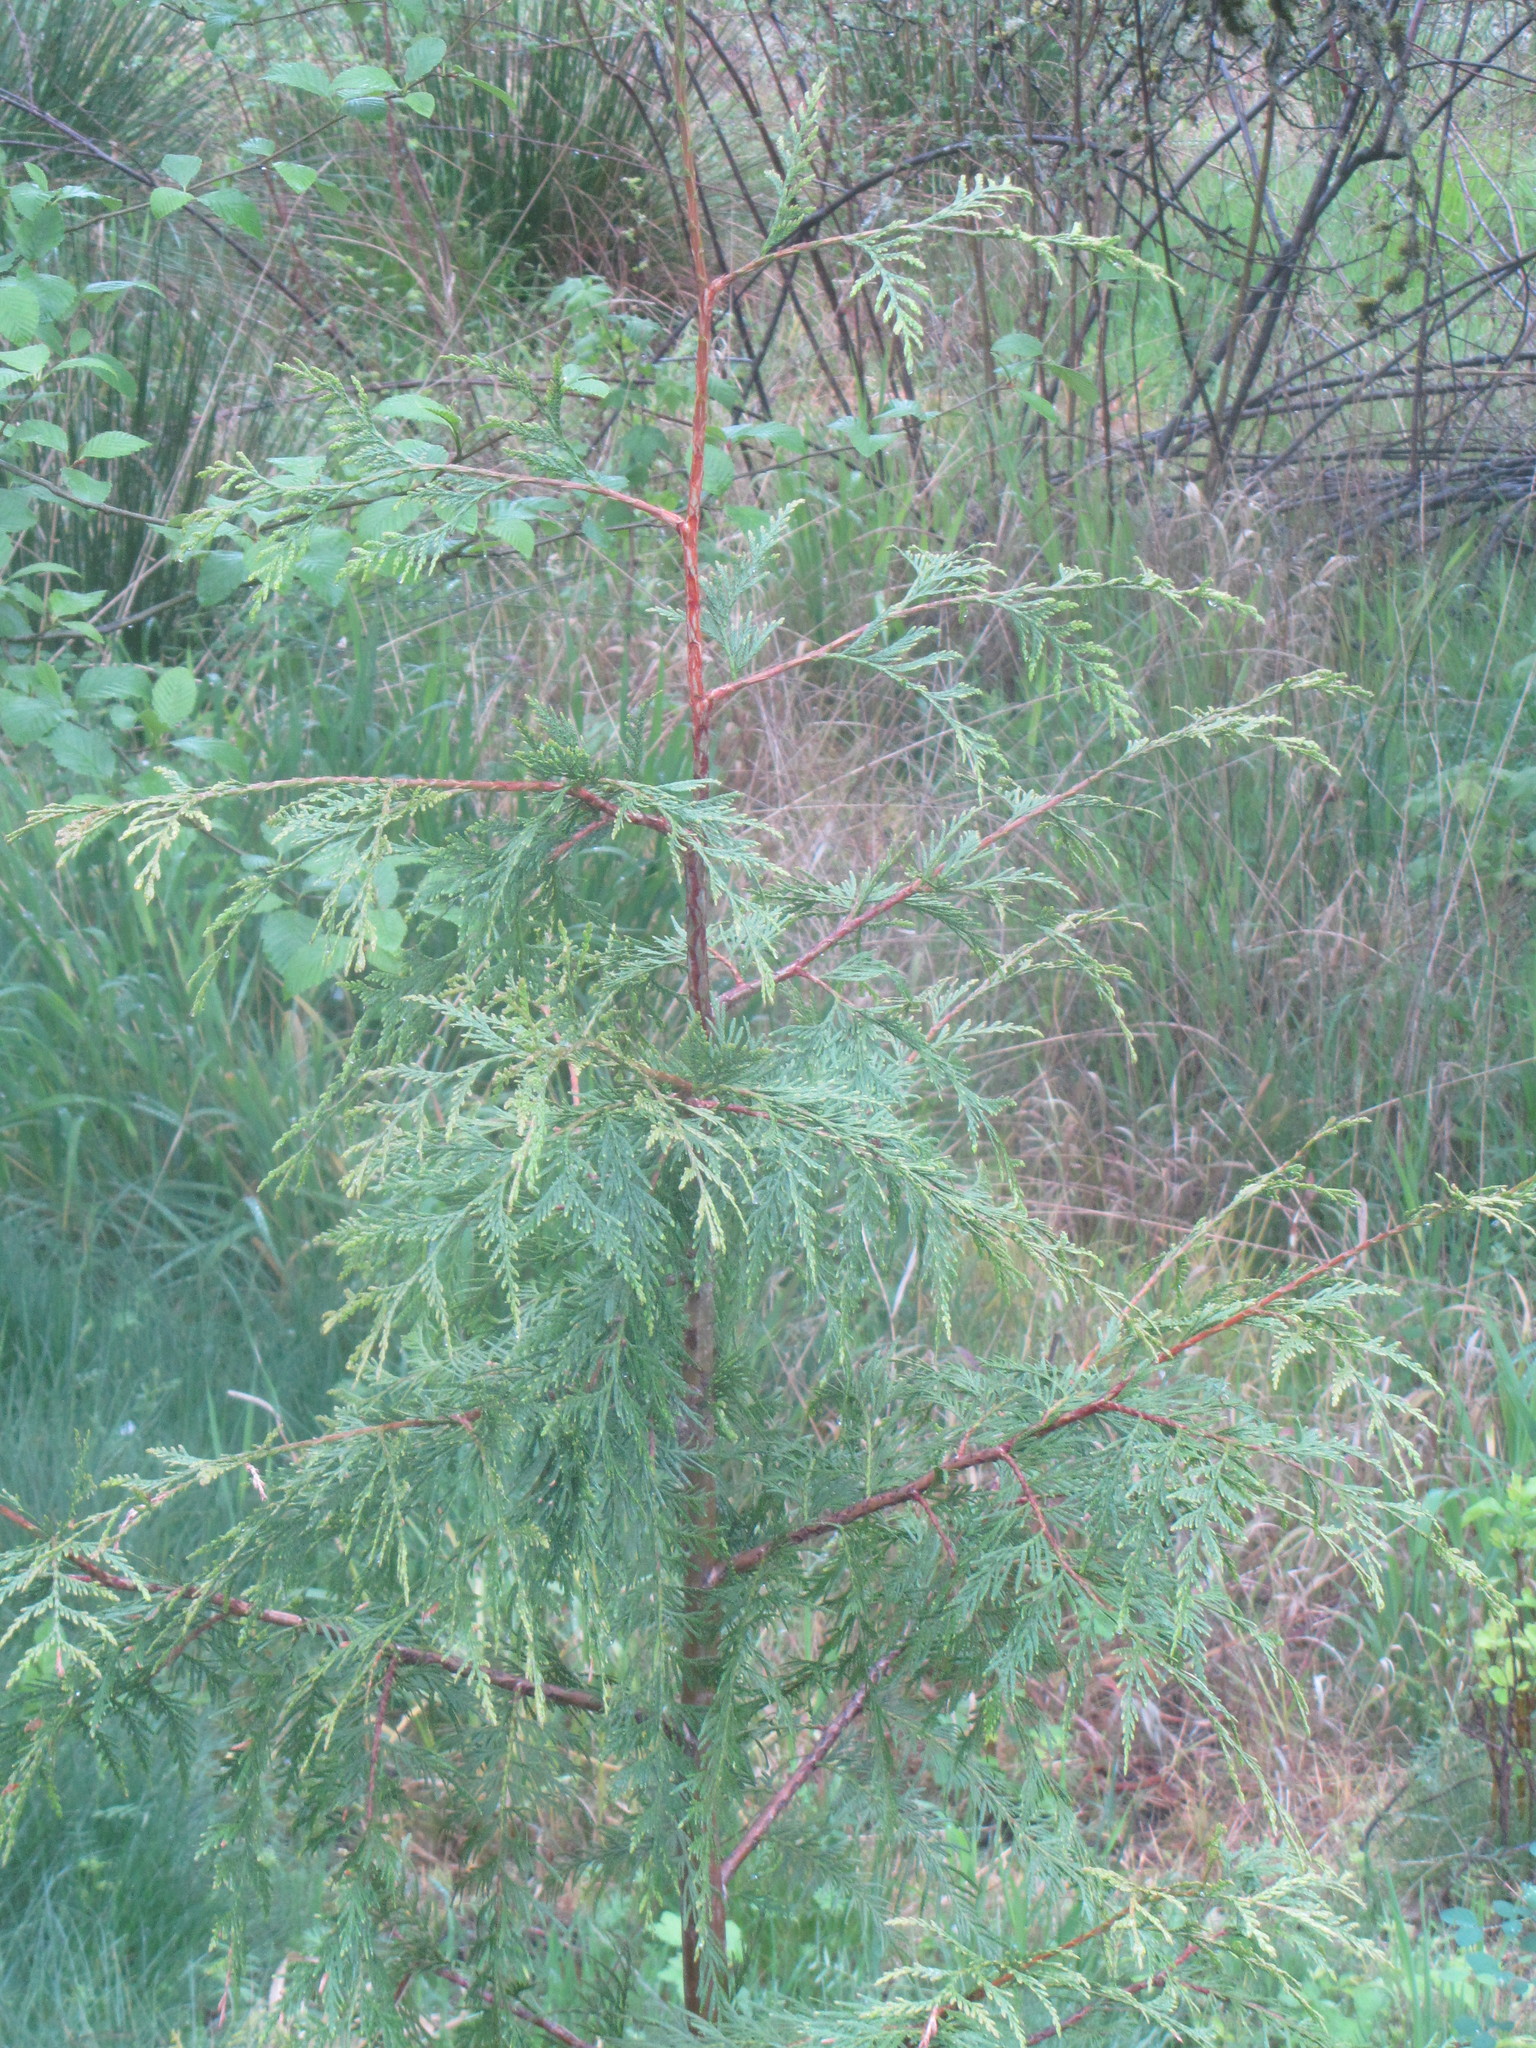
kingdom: Plantae
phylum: Tracheophyta
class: Pinopsida
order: Pinales
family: Cupressaceae
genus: Thuja
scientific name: Thuja plicata
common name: Western red-cedar
